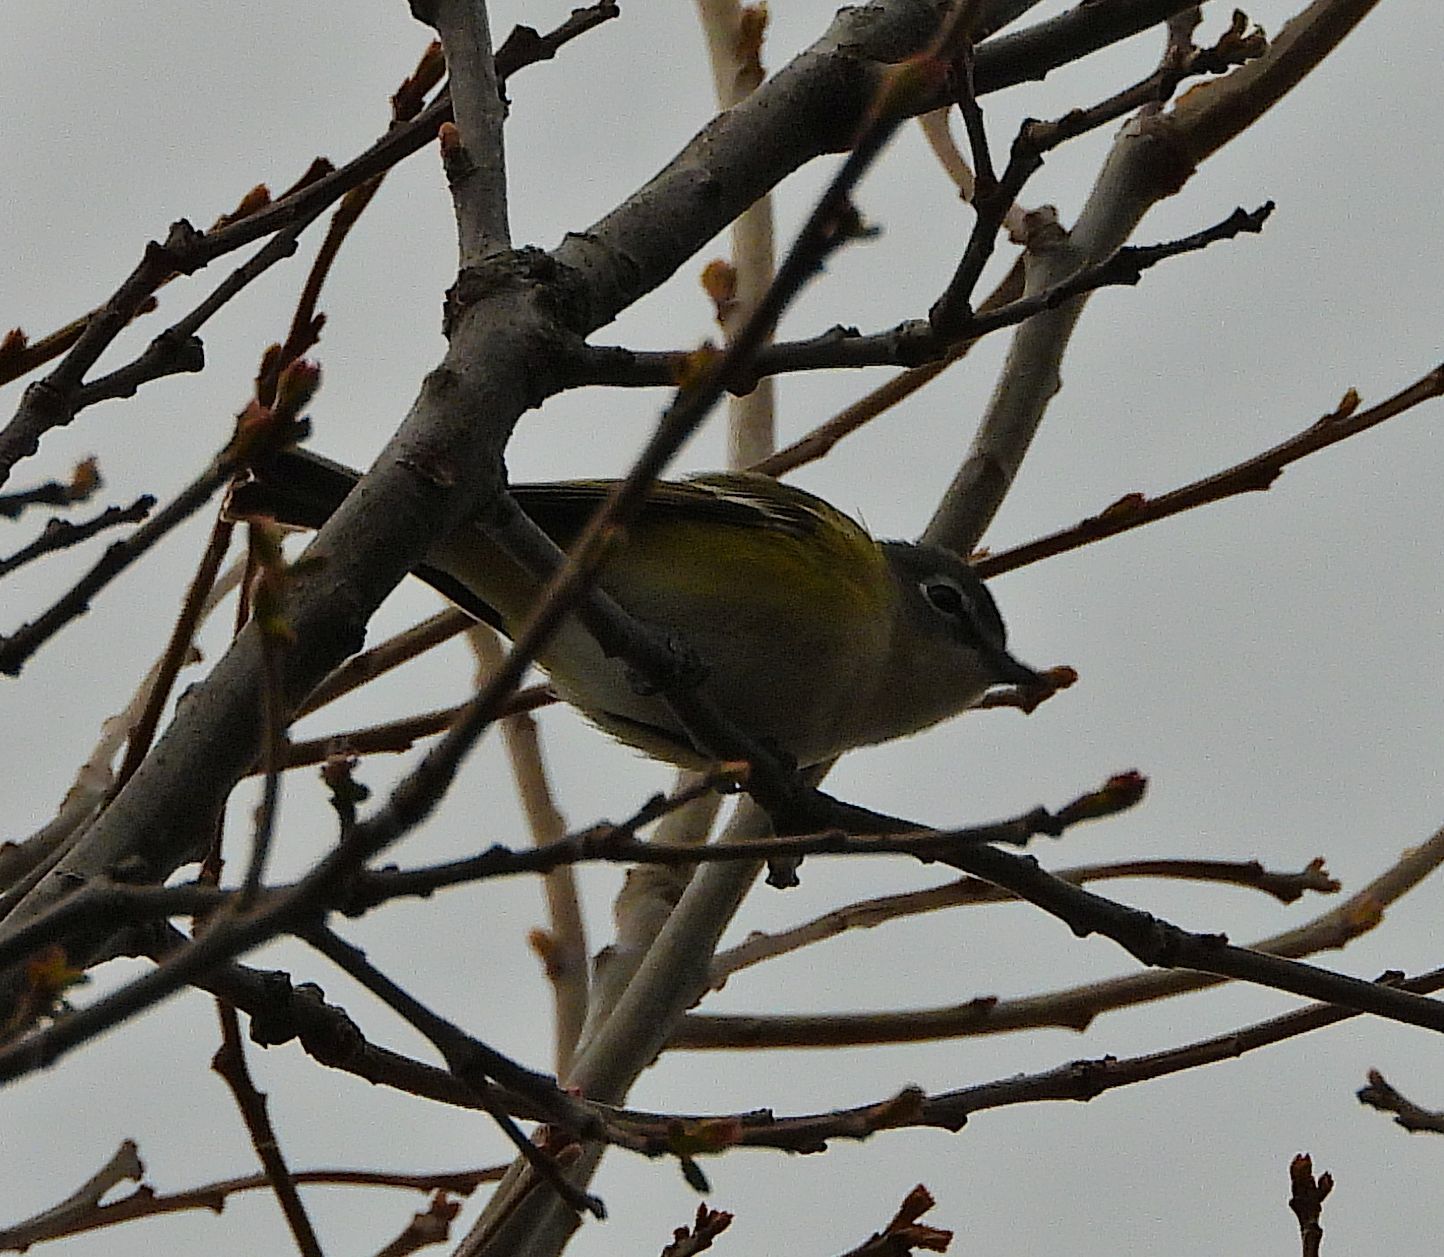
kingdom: Animalia
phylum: Chordata
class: Aves
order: Passeriformes
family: Vireonidae
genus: Vireo
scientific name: Vireo solitarius
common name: Blue-headed vireo
